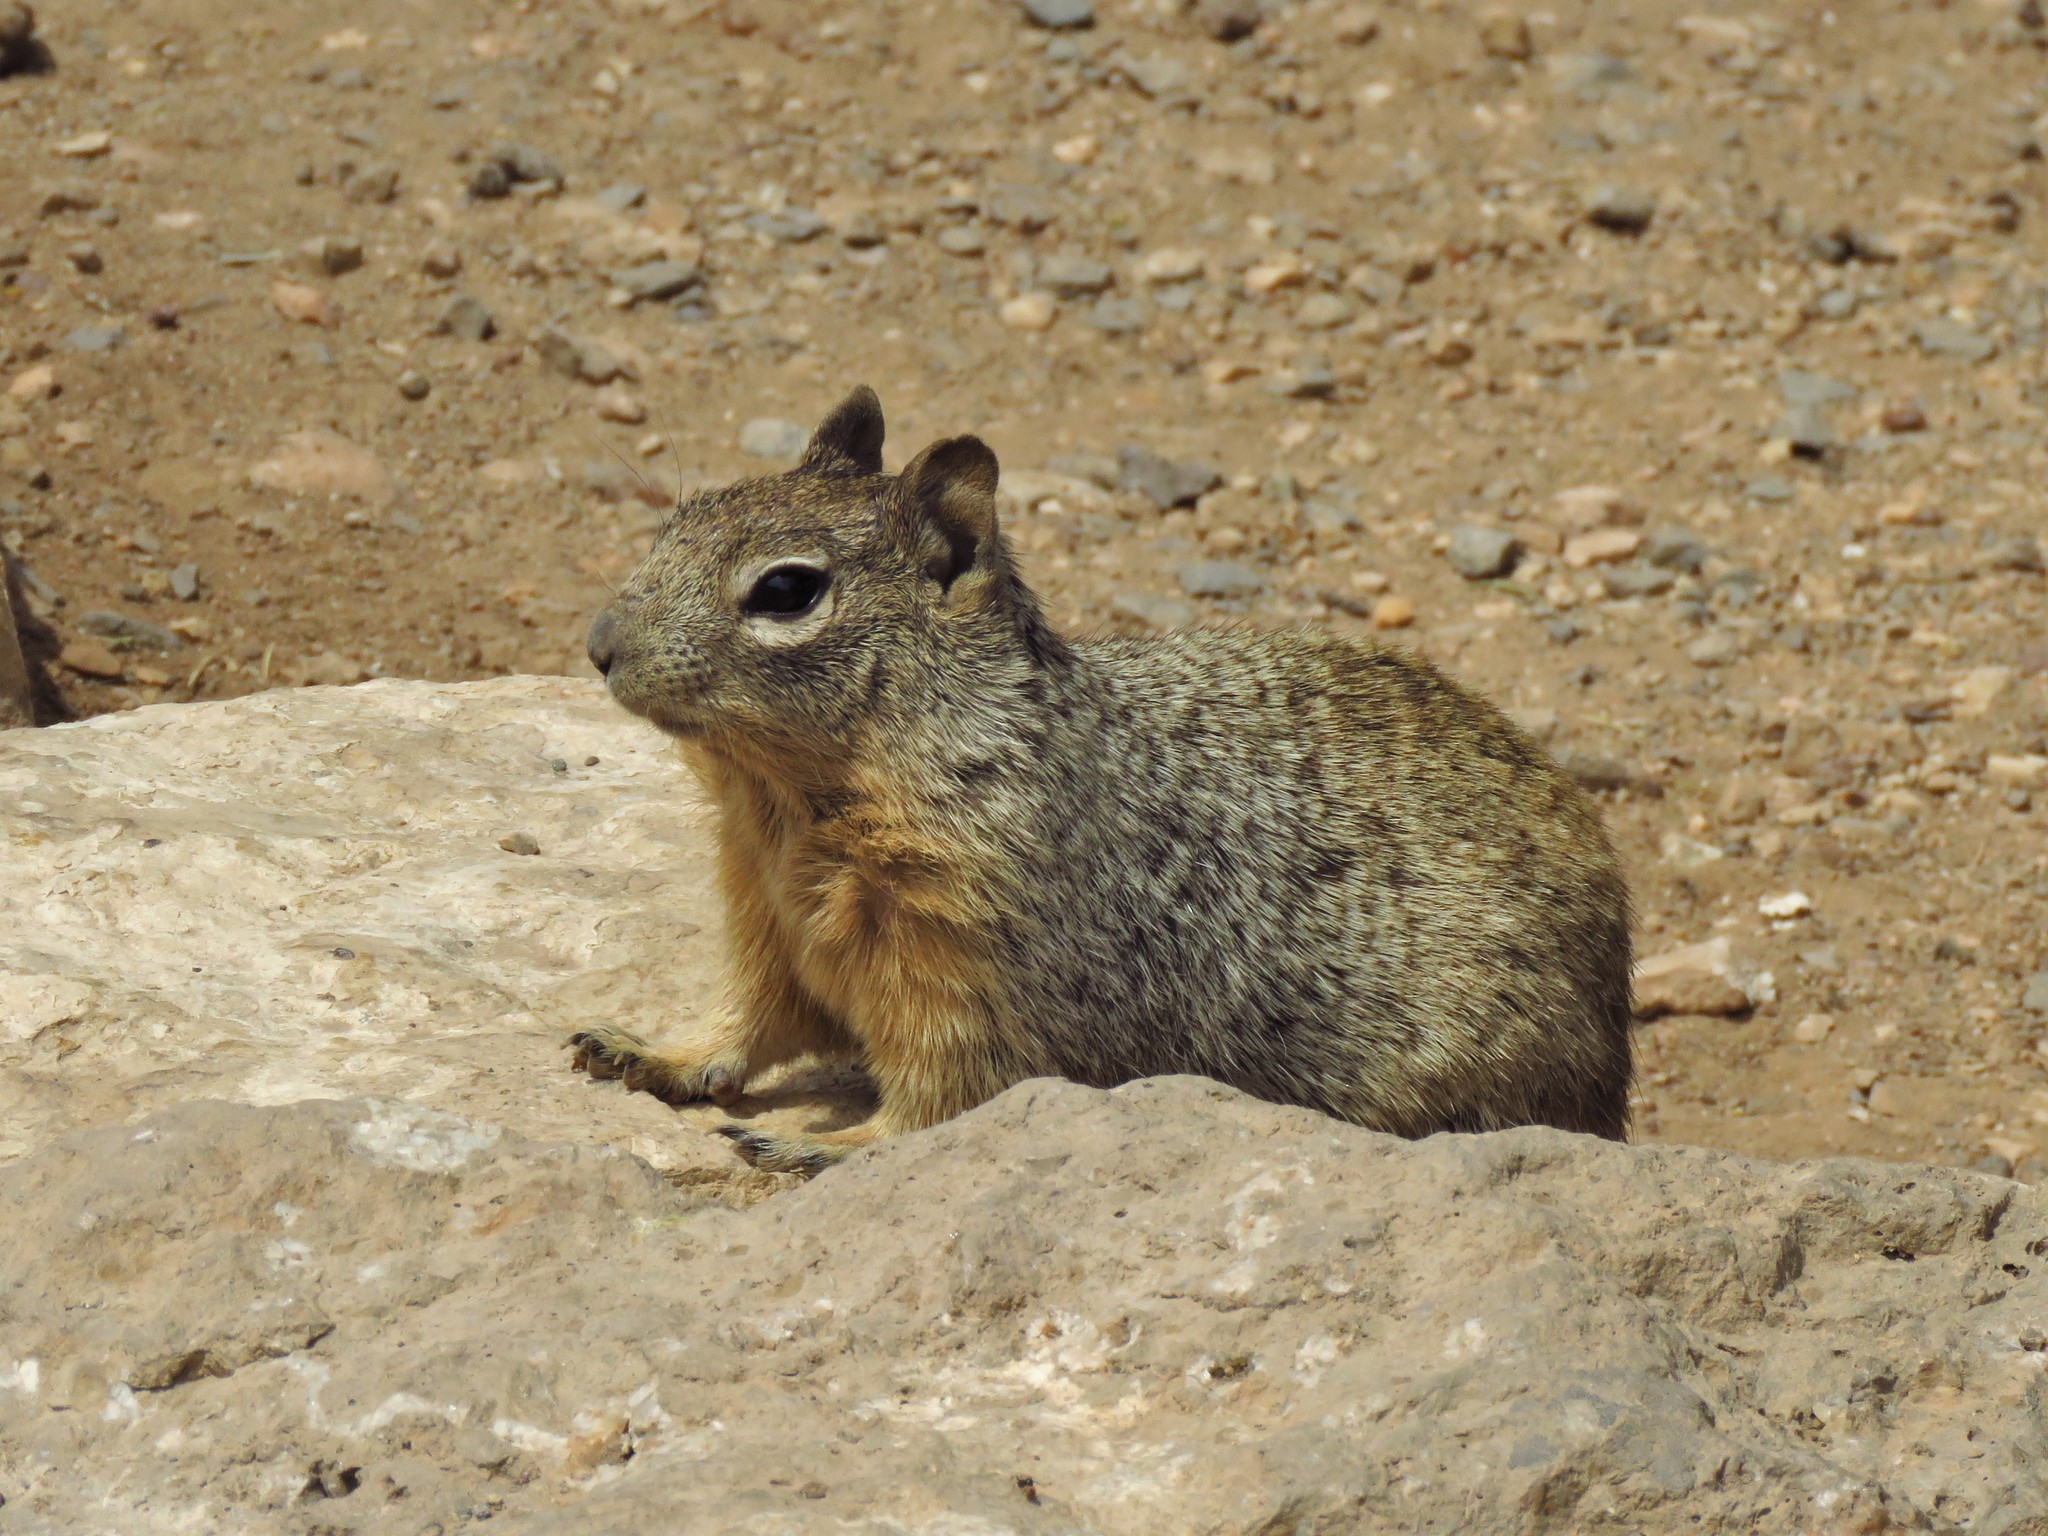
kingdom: Animalia
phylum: Chordata
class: Mammalia
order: Rodentia
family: Sciuridae
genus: Otospermophilus
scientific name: Otospermophilus variegatus
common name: Rock squirrel
